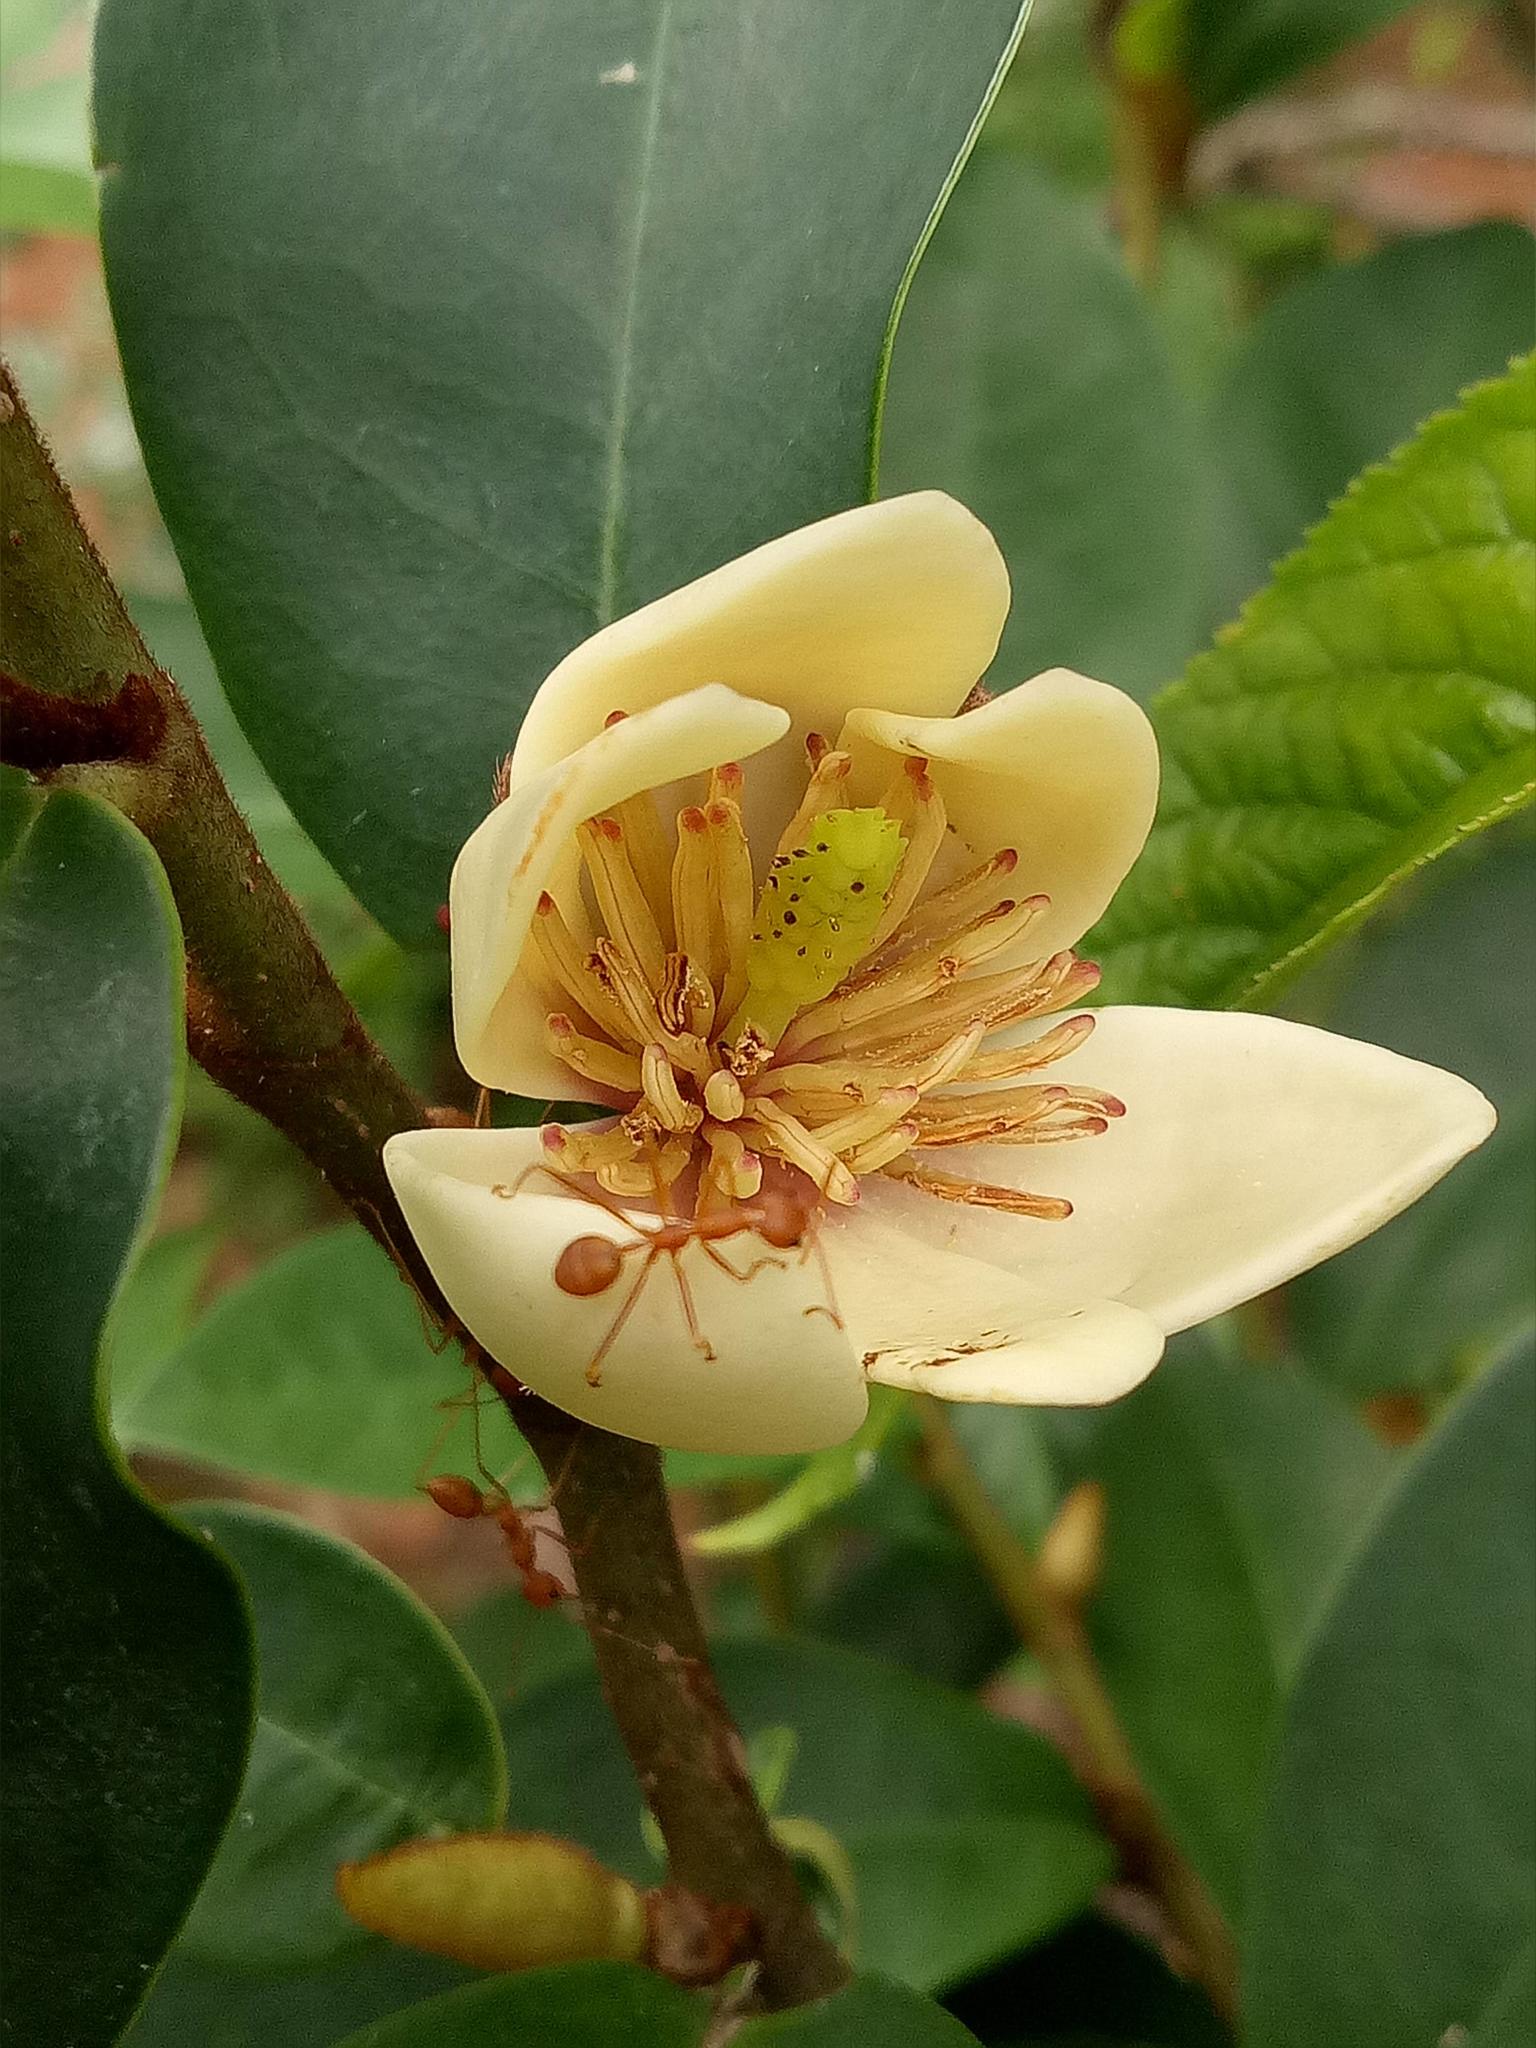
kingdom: Animalia
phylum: Arthropoda
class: Insecta
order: Hymenoptera
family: Formicidae
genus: Oecophylla
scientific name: Oecophylla smaragdina
